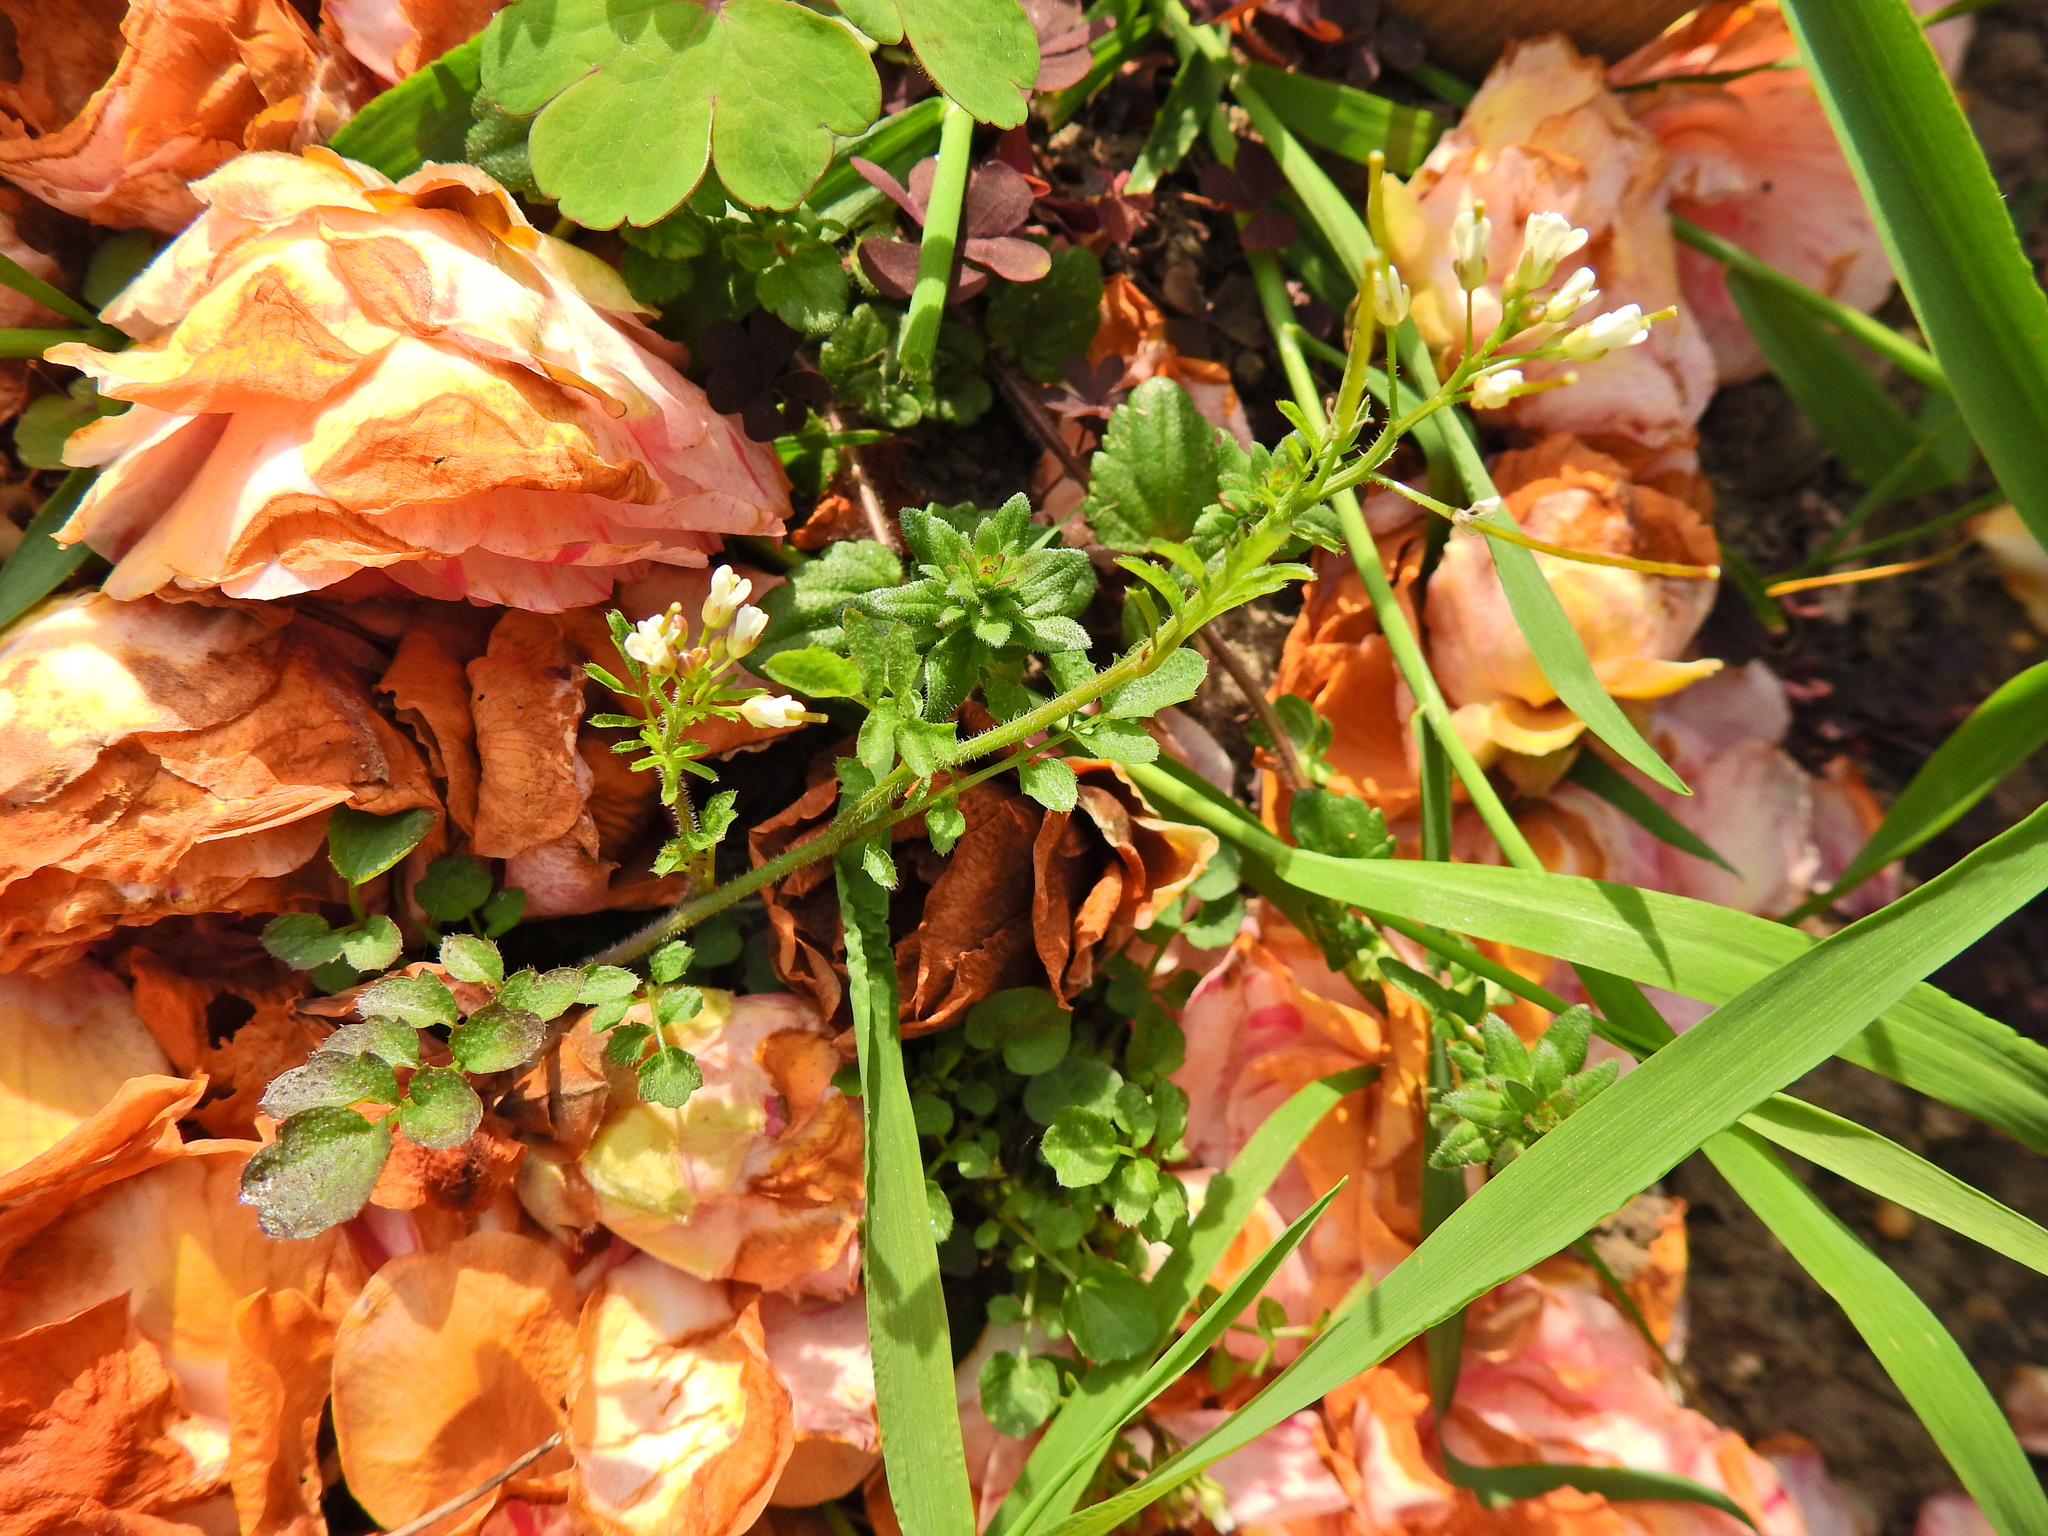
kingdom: Plantae
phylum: Tracheophyta
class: Magnoliopsida
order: Brassicales
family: Brassicaceae
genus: Cardamine
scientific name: Cardamine flexuosa
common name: Woodland bittercress
